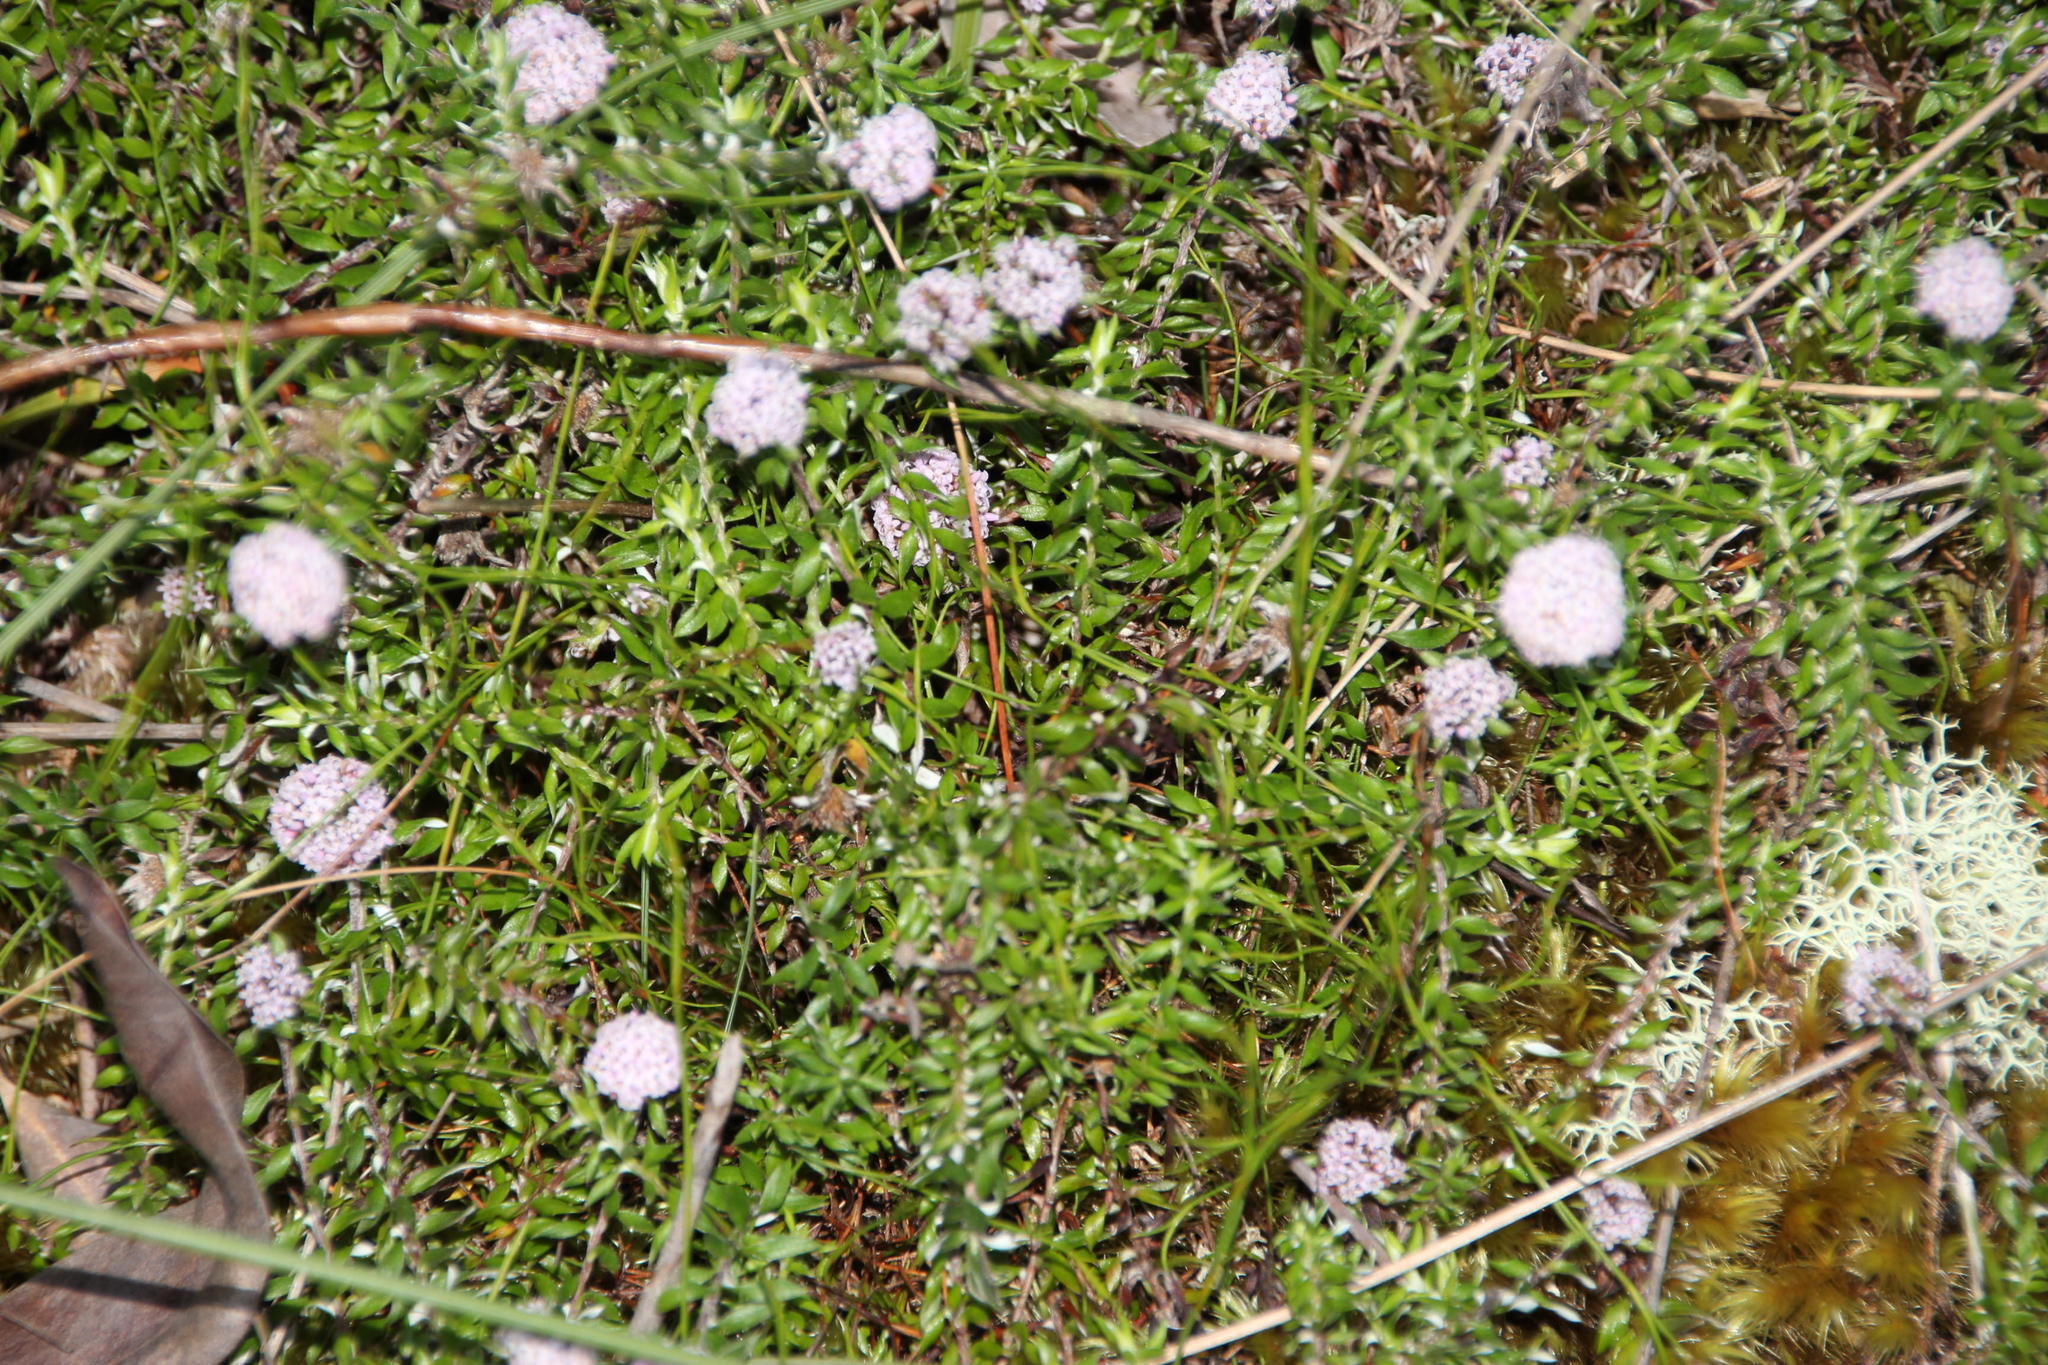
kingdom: Plantae
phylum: Tracheophyta
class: Magnoliopsida
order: Asterales
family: Asteraceae
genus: Stoebe
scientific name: Stoebe prostrata
